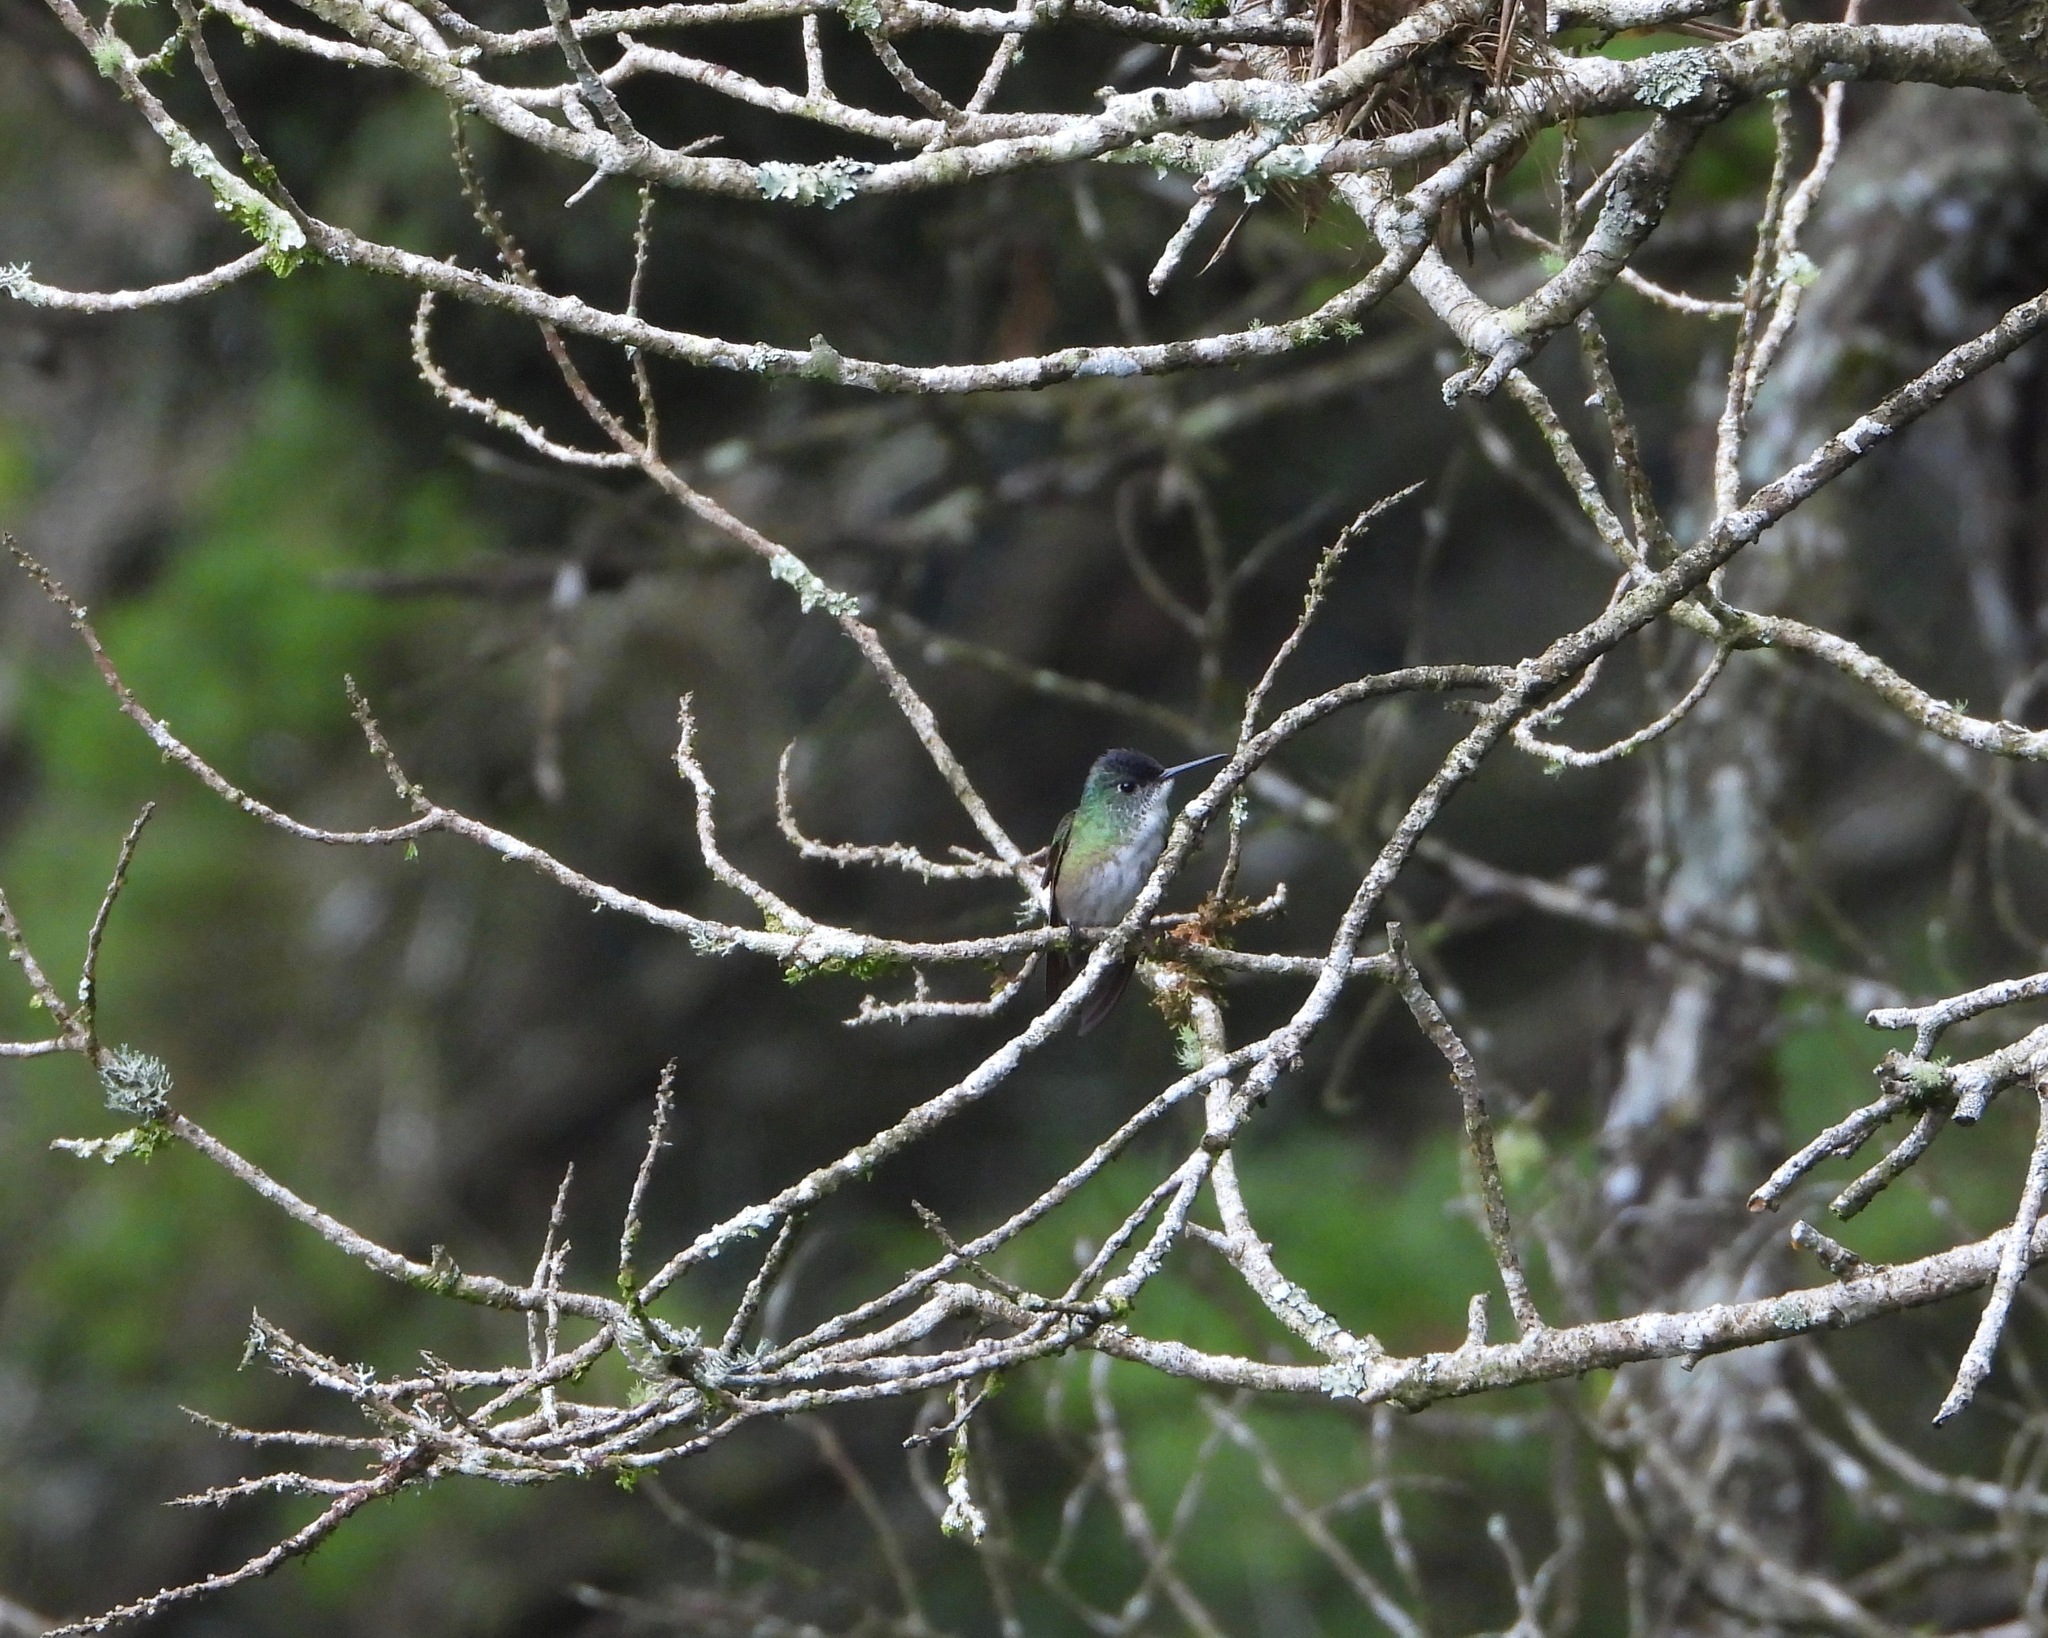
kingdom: Animalia
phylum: Chordata
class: Aves
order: Apodiformes
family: Trochilidae
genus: Saucerottia
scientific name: Saucerottia cyanocephala
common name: Azure-crowned hummingbird
